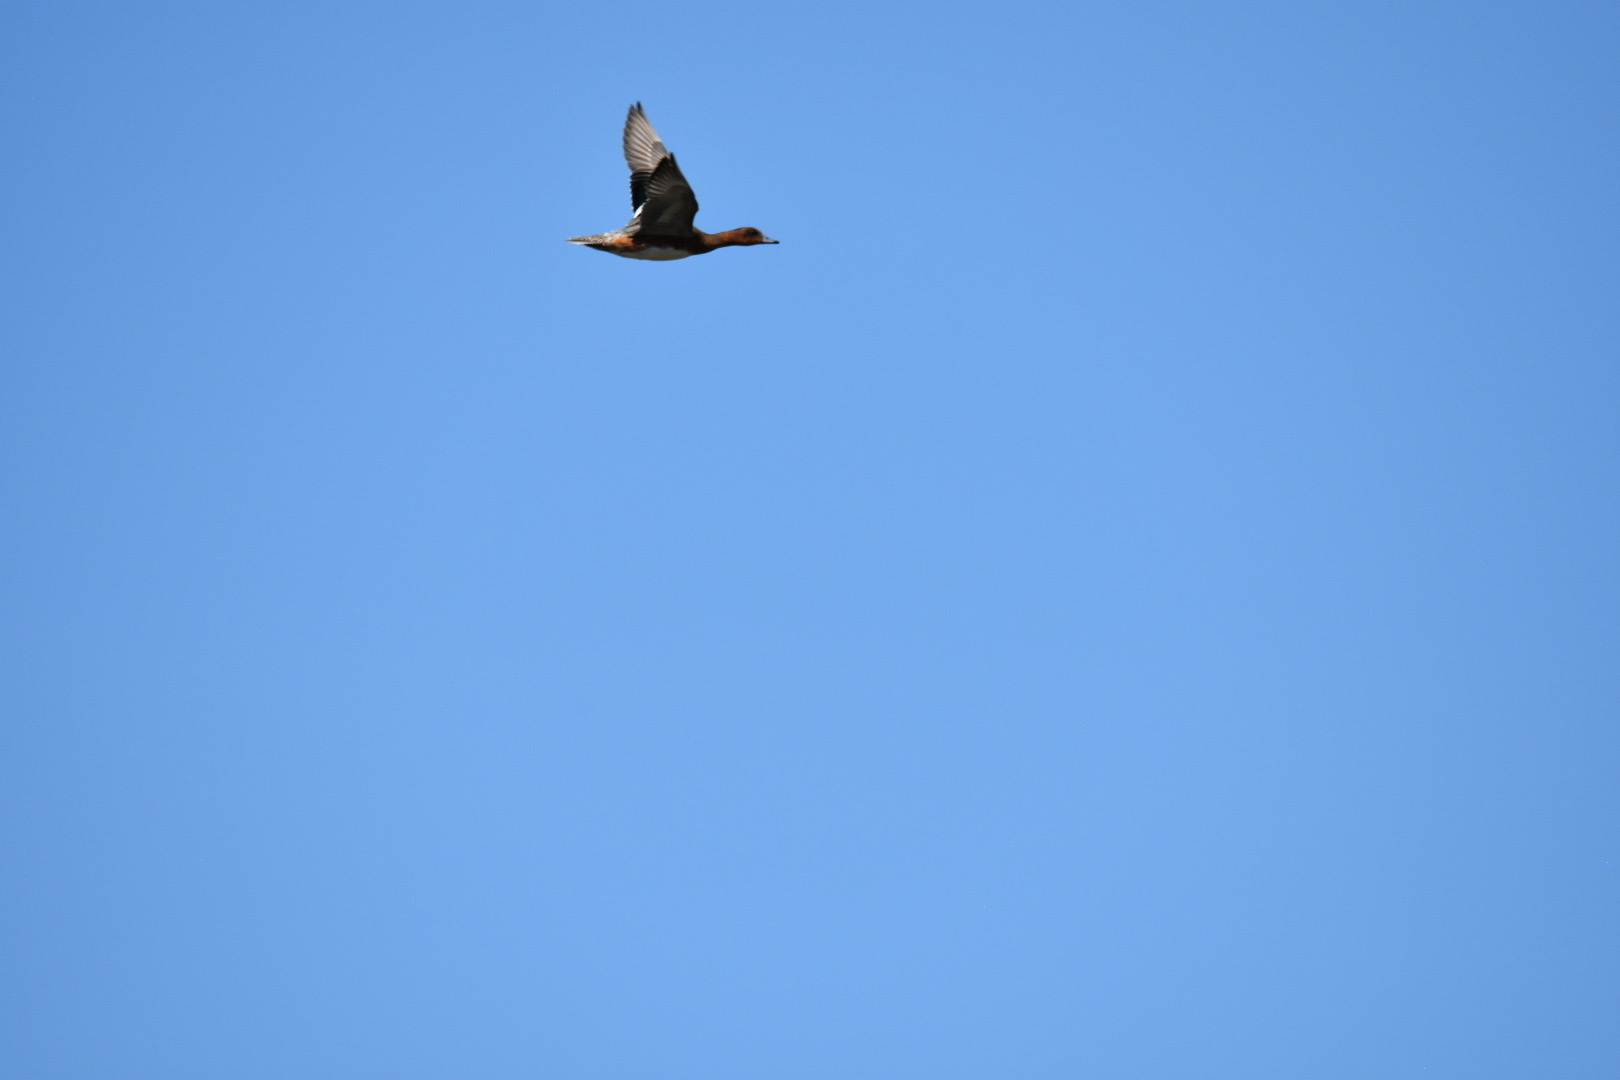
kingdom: Animalia
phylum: Chordata
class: Aves
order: Anseriformes
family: Anatidae
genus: Mareca
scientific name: Mareca penelope
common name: Eurasian wigeon
